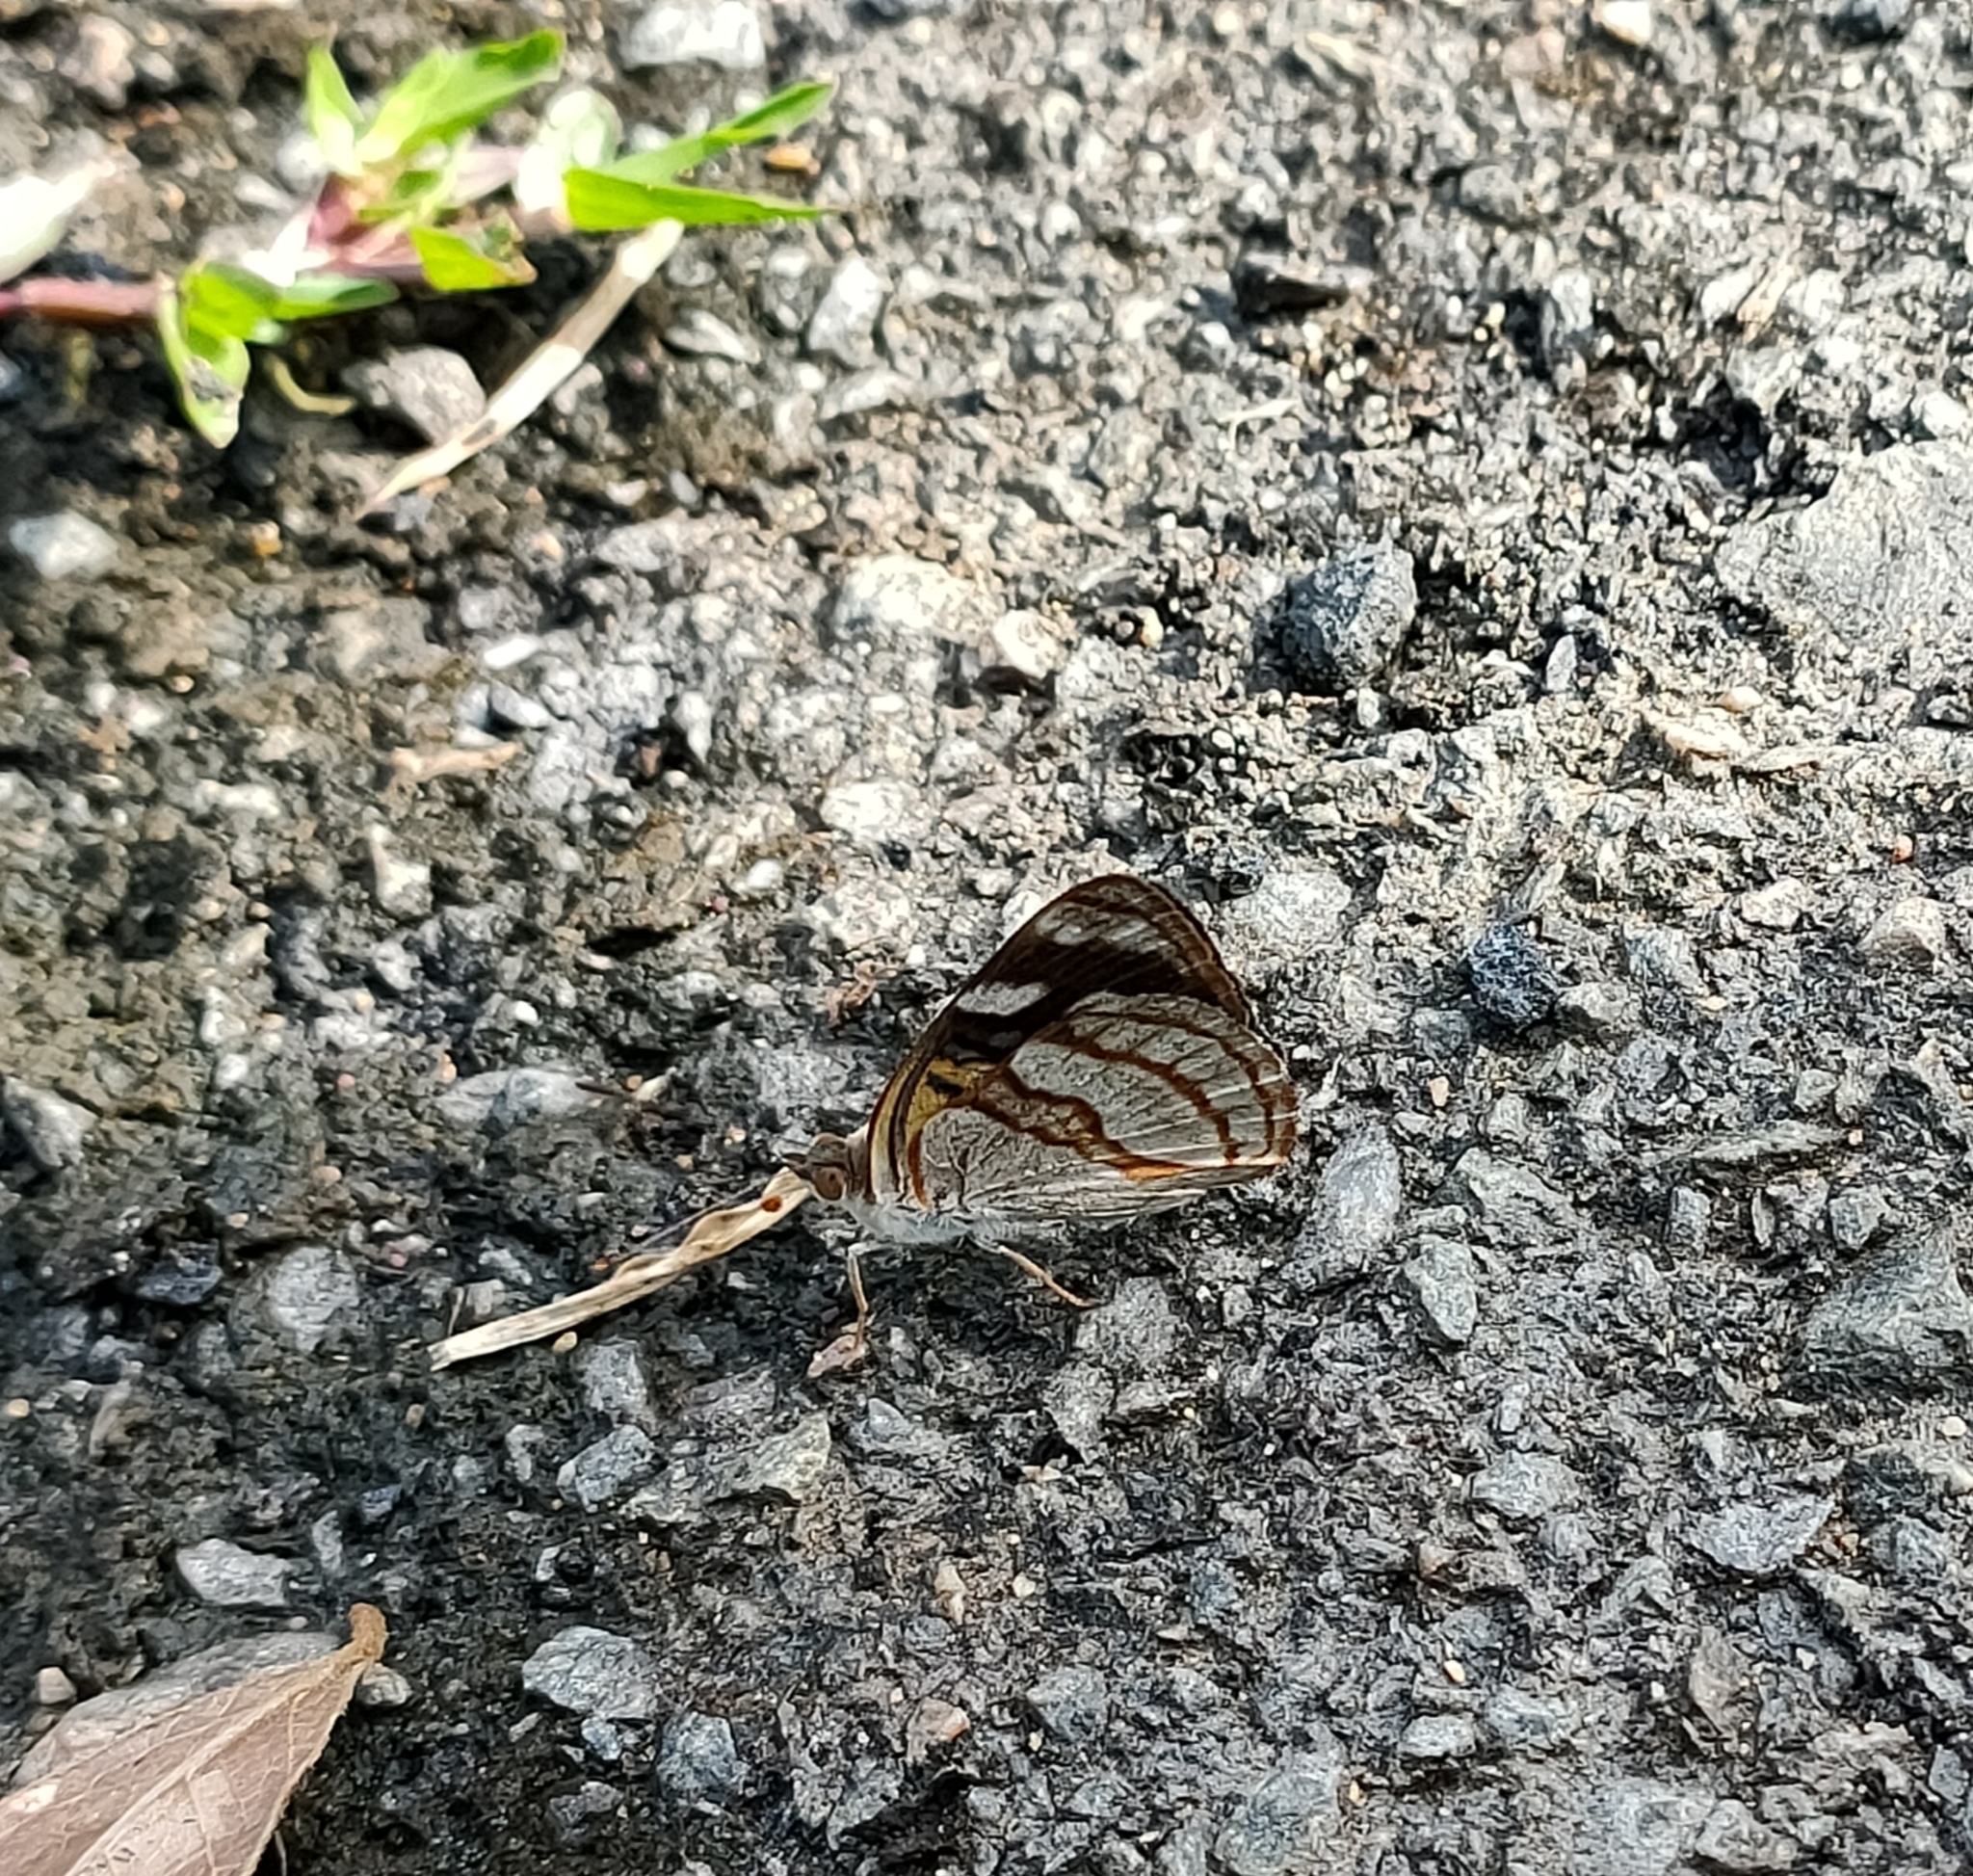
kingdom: Animalia
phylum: Arthropoda
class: Insecta
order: Lepidoptera
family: Nymphalidae
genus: Dynamine
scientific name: Dynamine tithia
